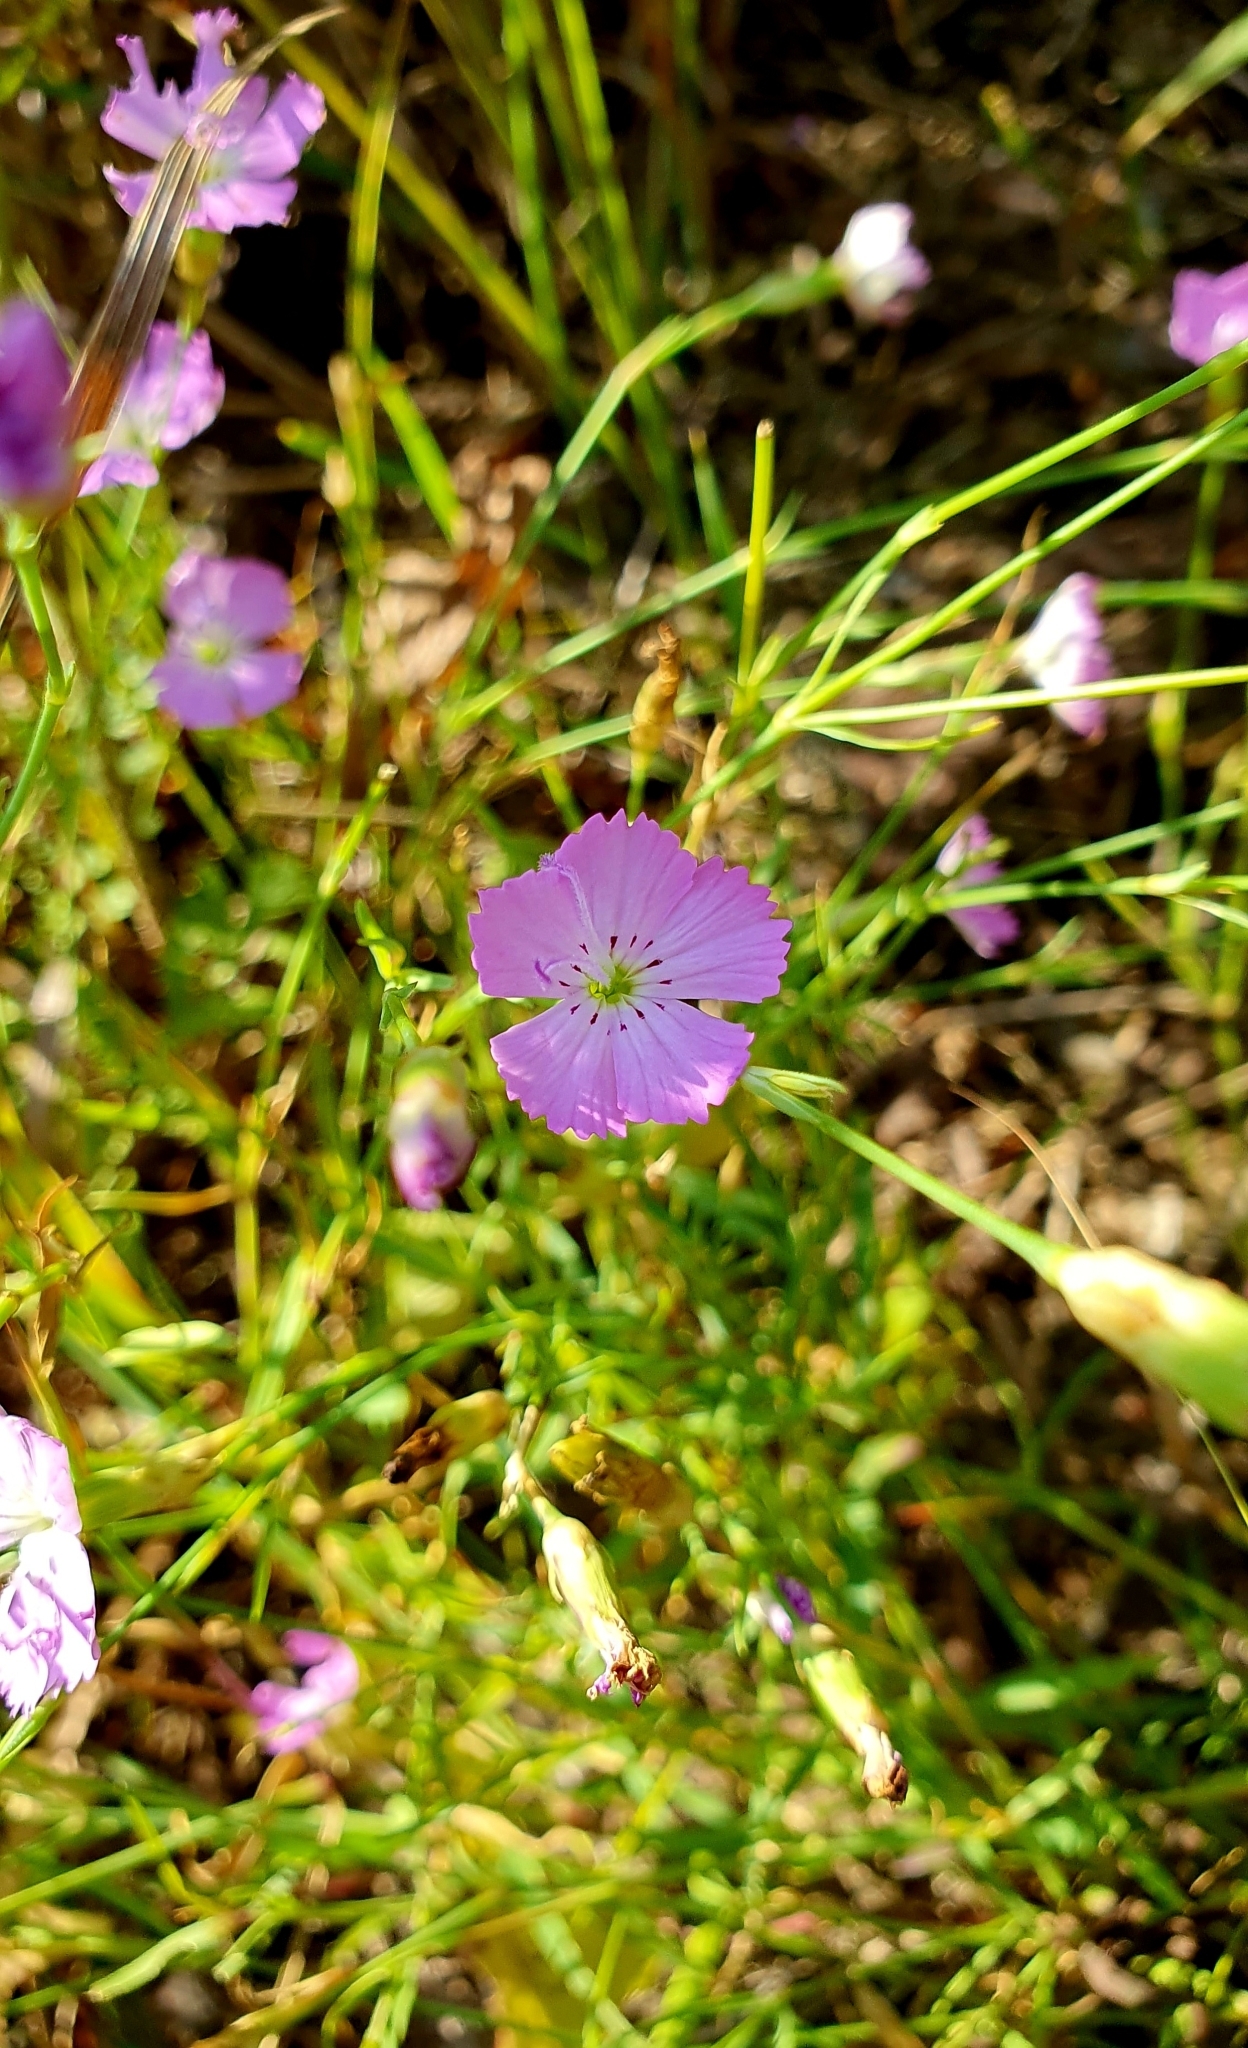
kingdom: Plantae
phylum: Tracheophyta
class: Magnoliopsida
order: Caryophyllales
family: Caryophyllaceae
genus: Dianthus
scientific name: Dianthus chinensis
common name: Rainbow pink
